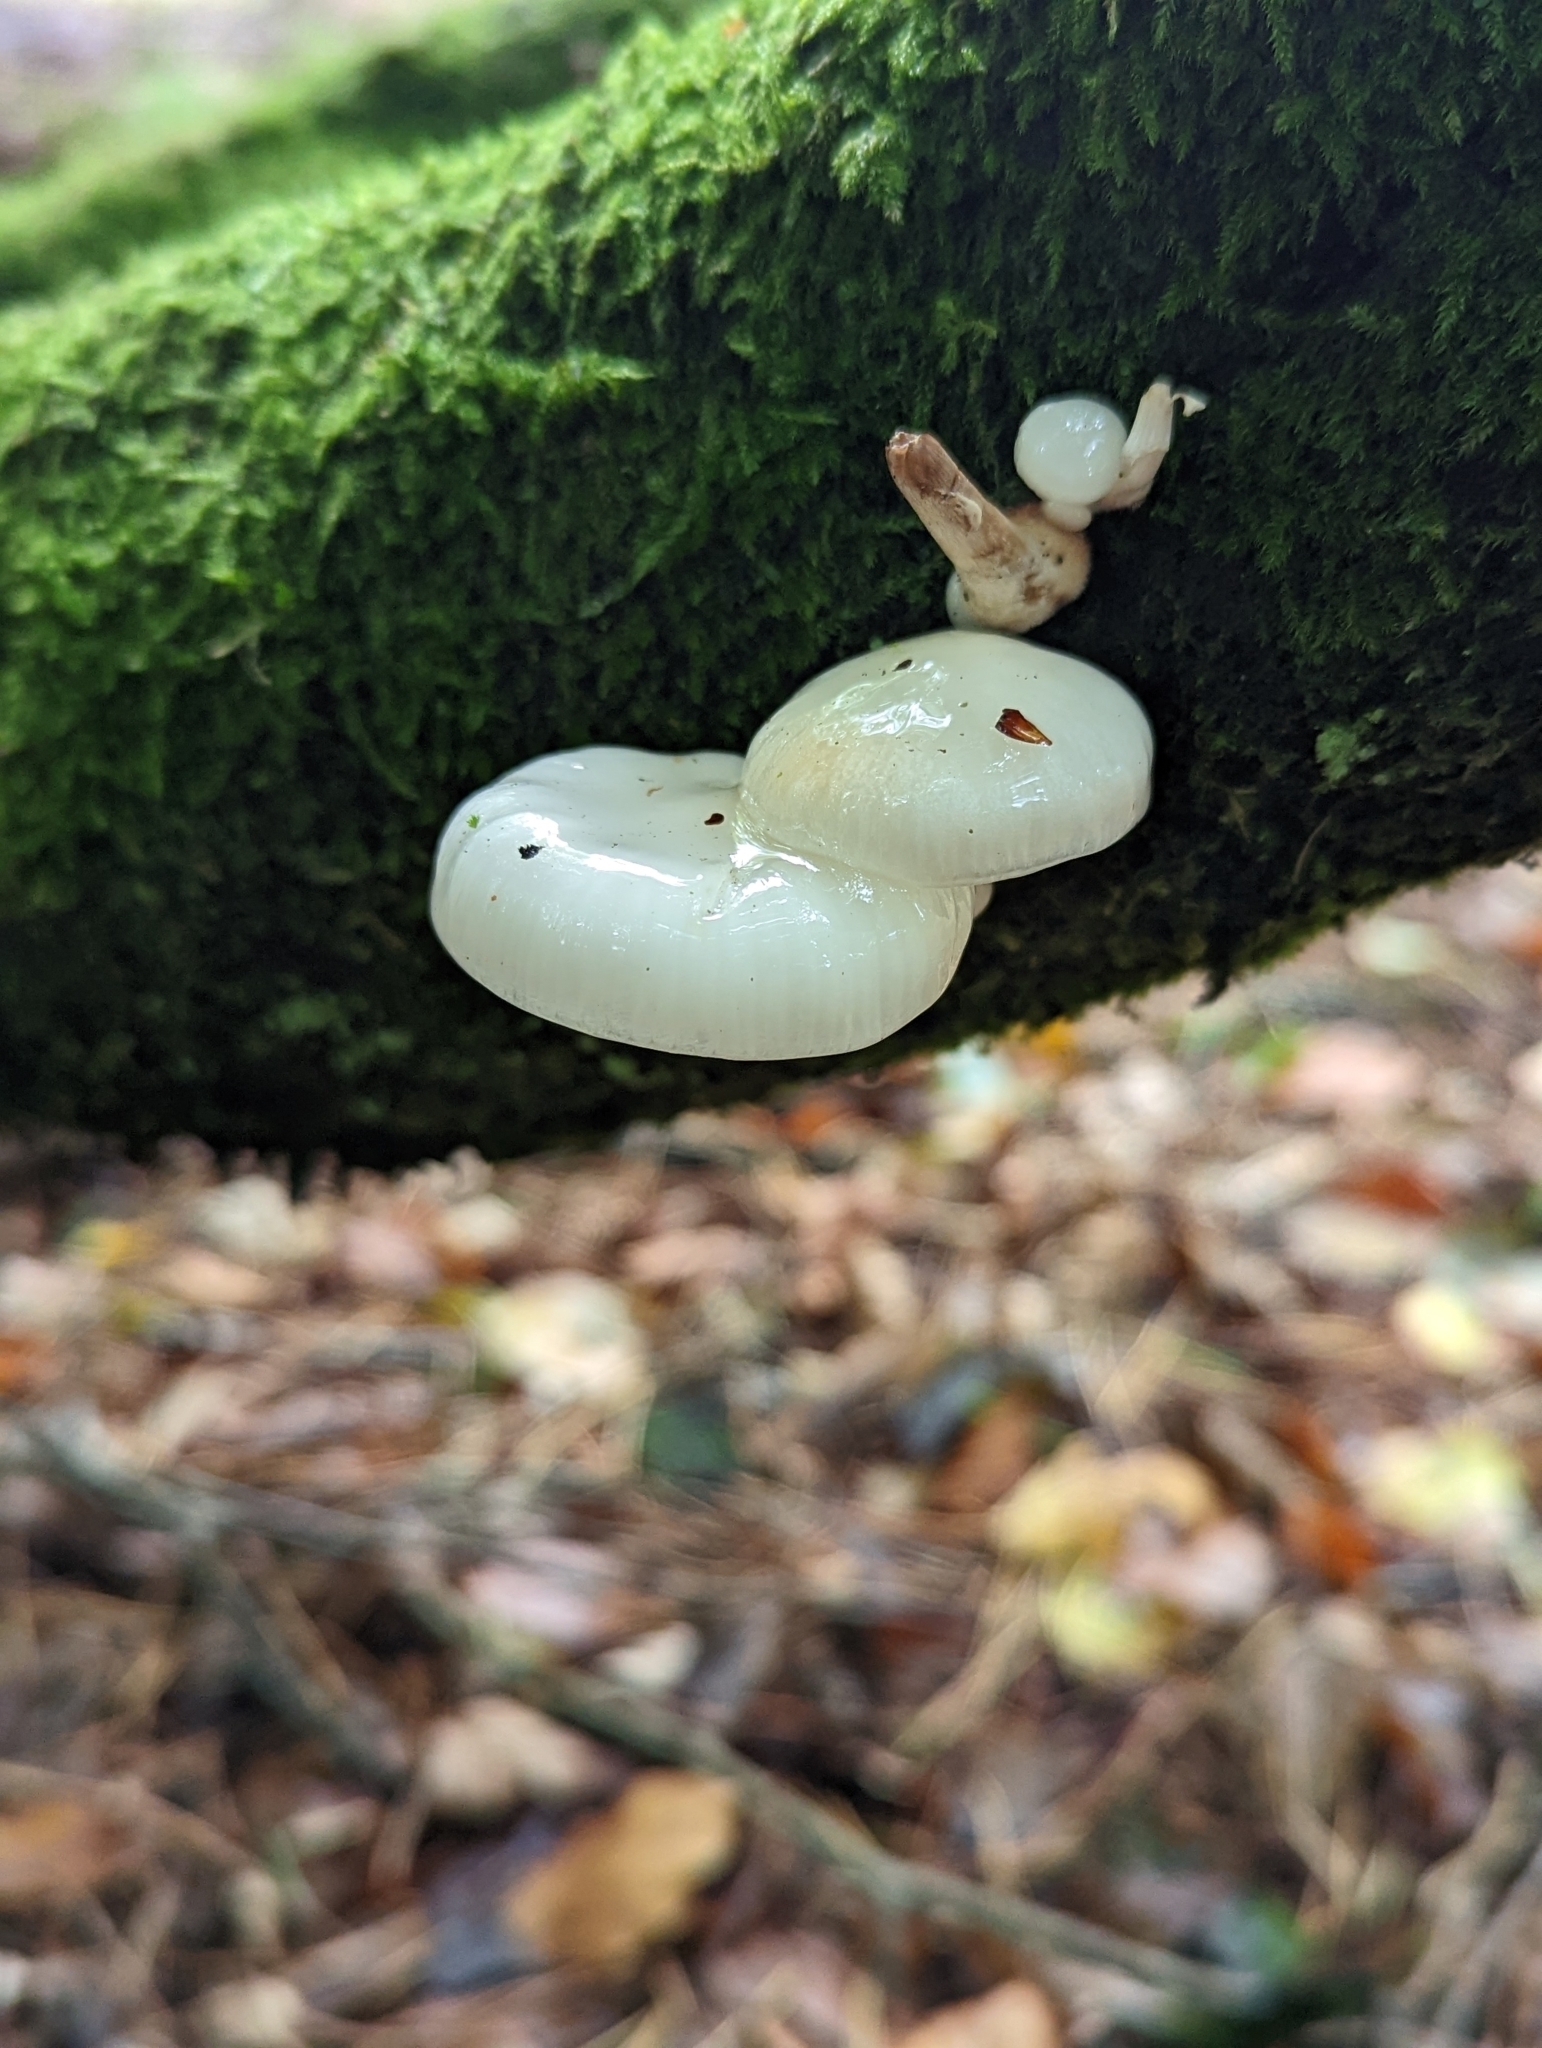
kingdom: Fungi
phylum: Basidiomycota
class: Agaricomycetes
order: Agaricales
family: Physalacriaceae
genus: Mucidula
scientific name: Mucidula mucida
